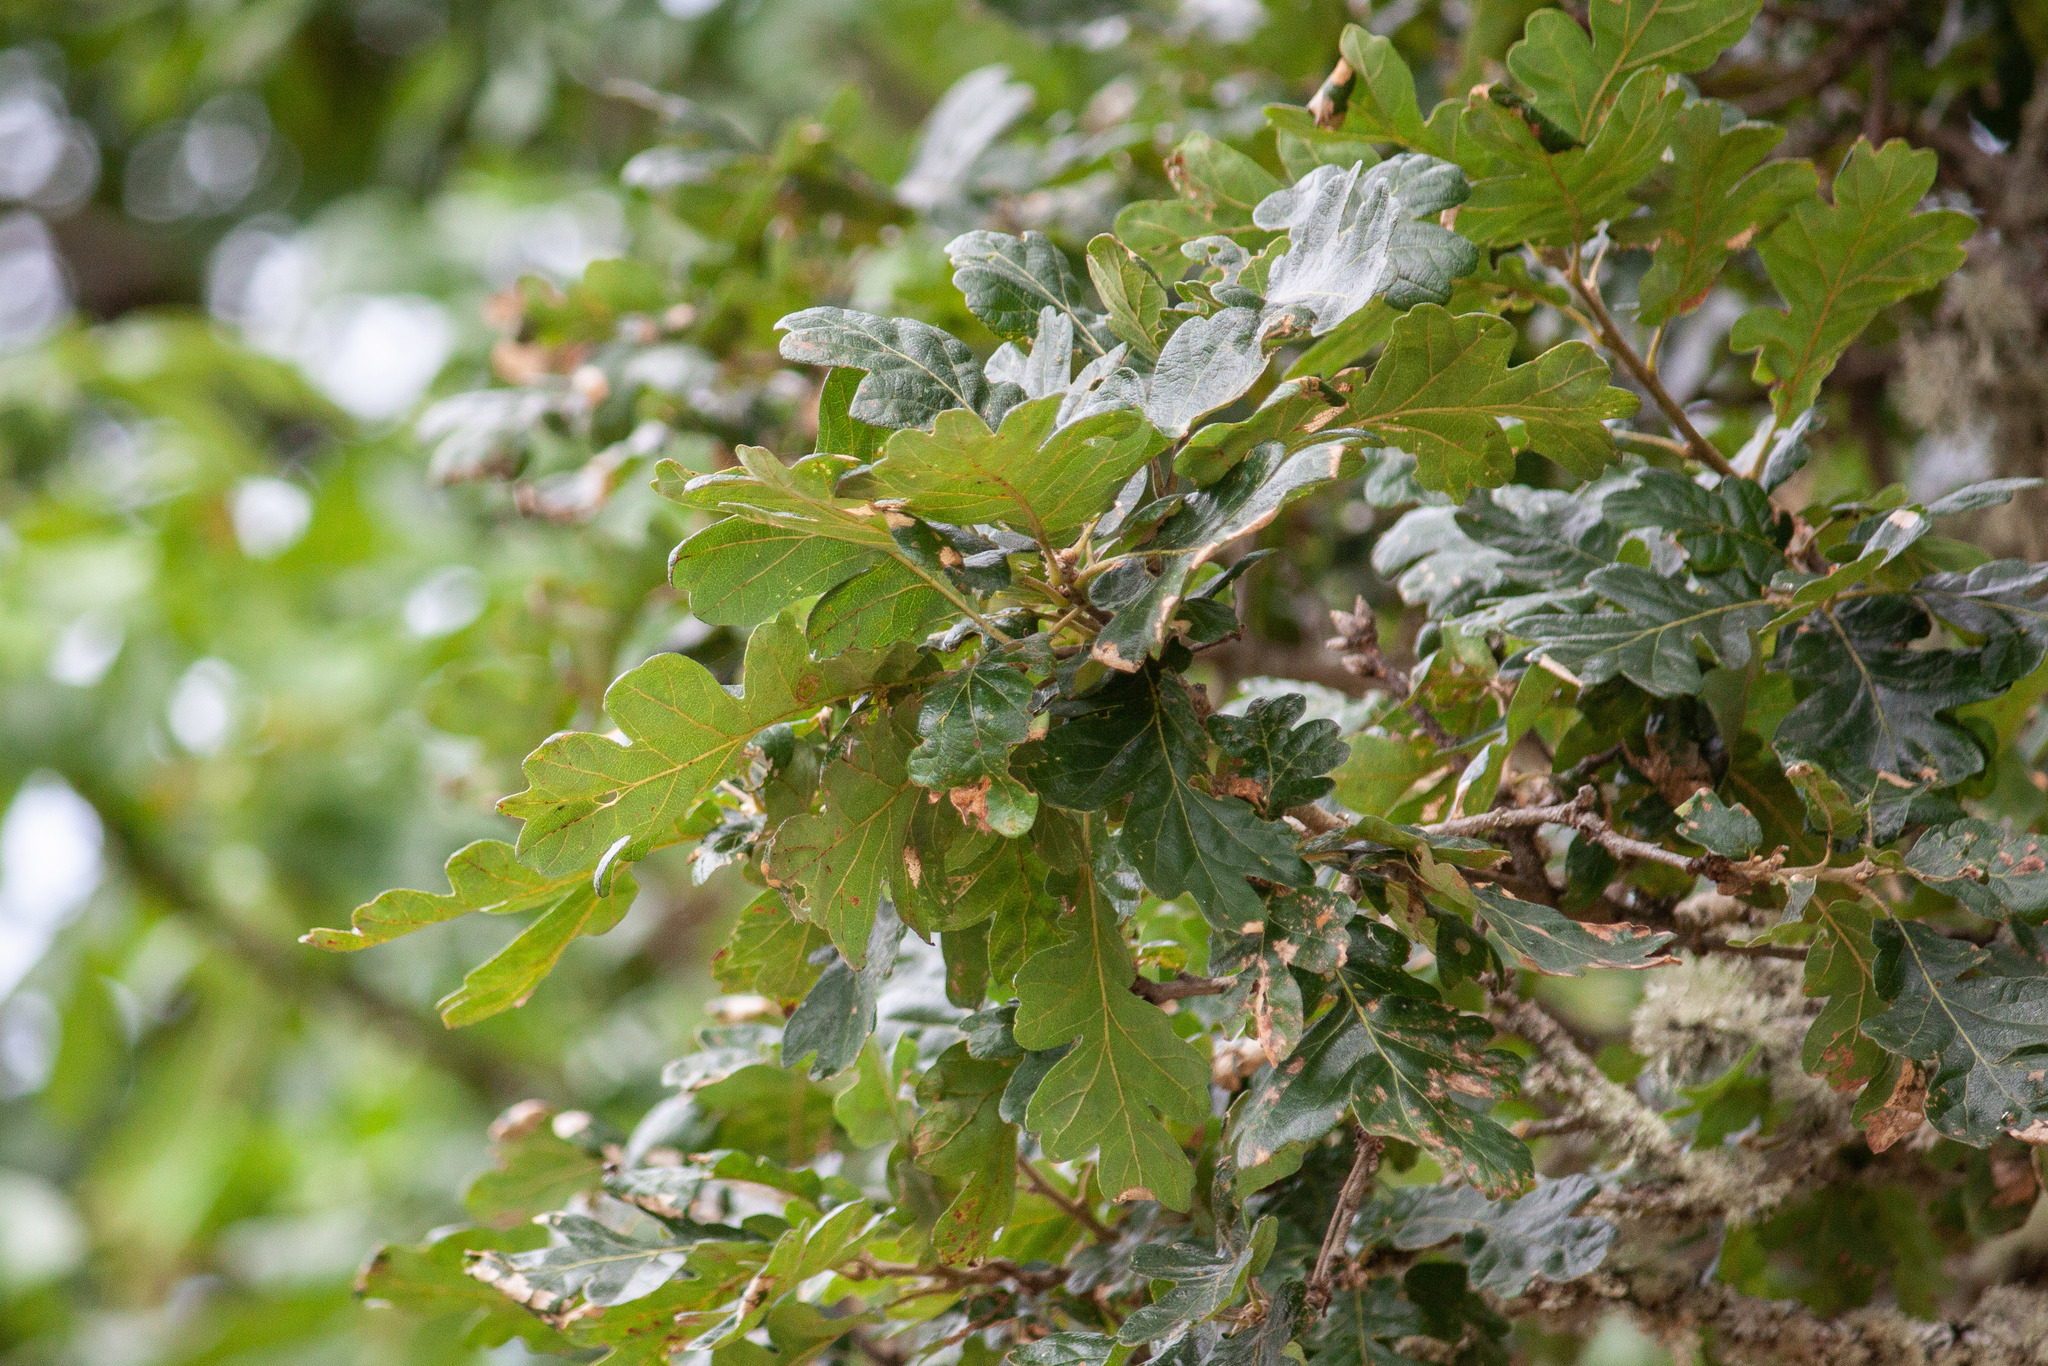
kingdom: Plantae
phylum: Tracheophyta
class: Magnoliopsida
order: Fagales
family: Fagaceae
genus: Quercus
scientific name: Quercus garryana
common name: Garry oak
